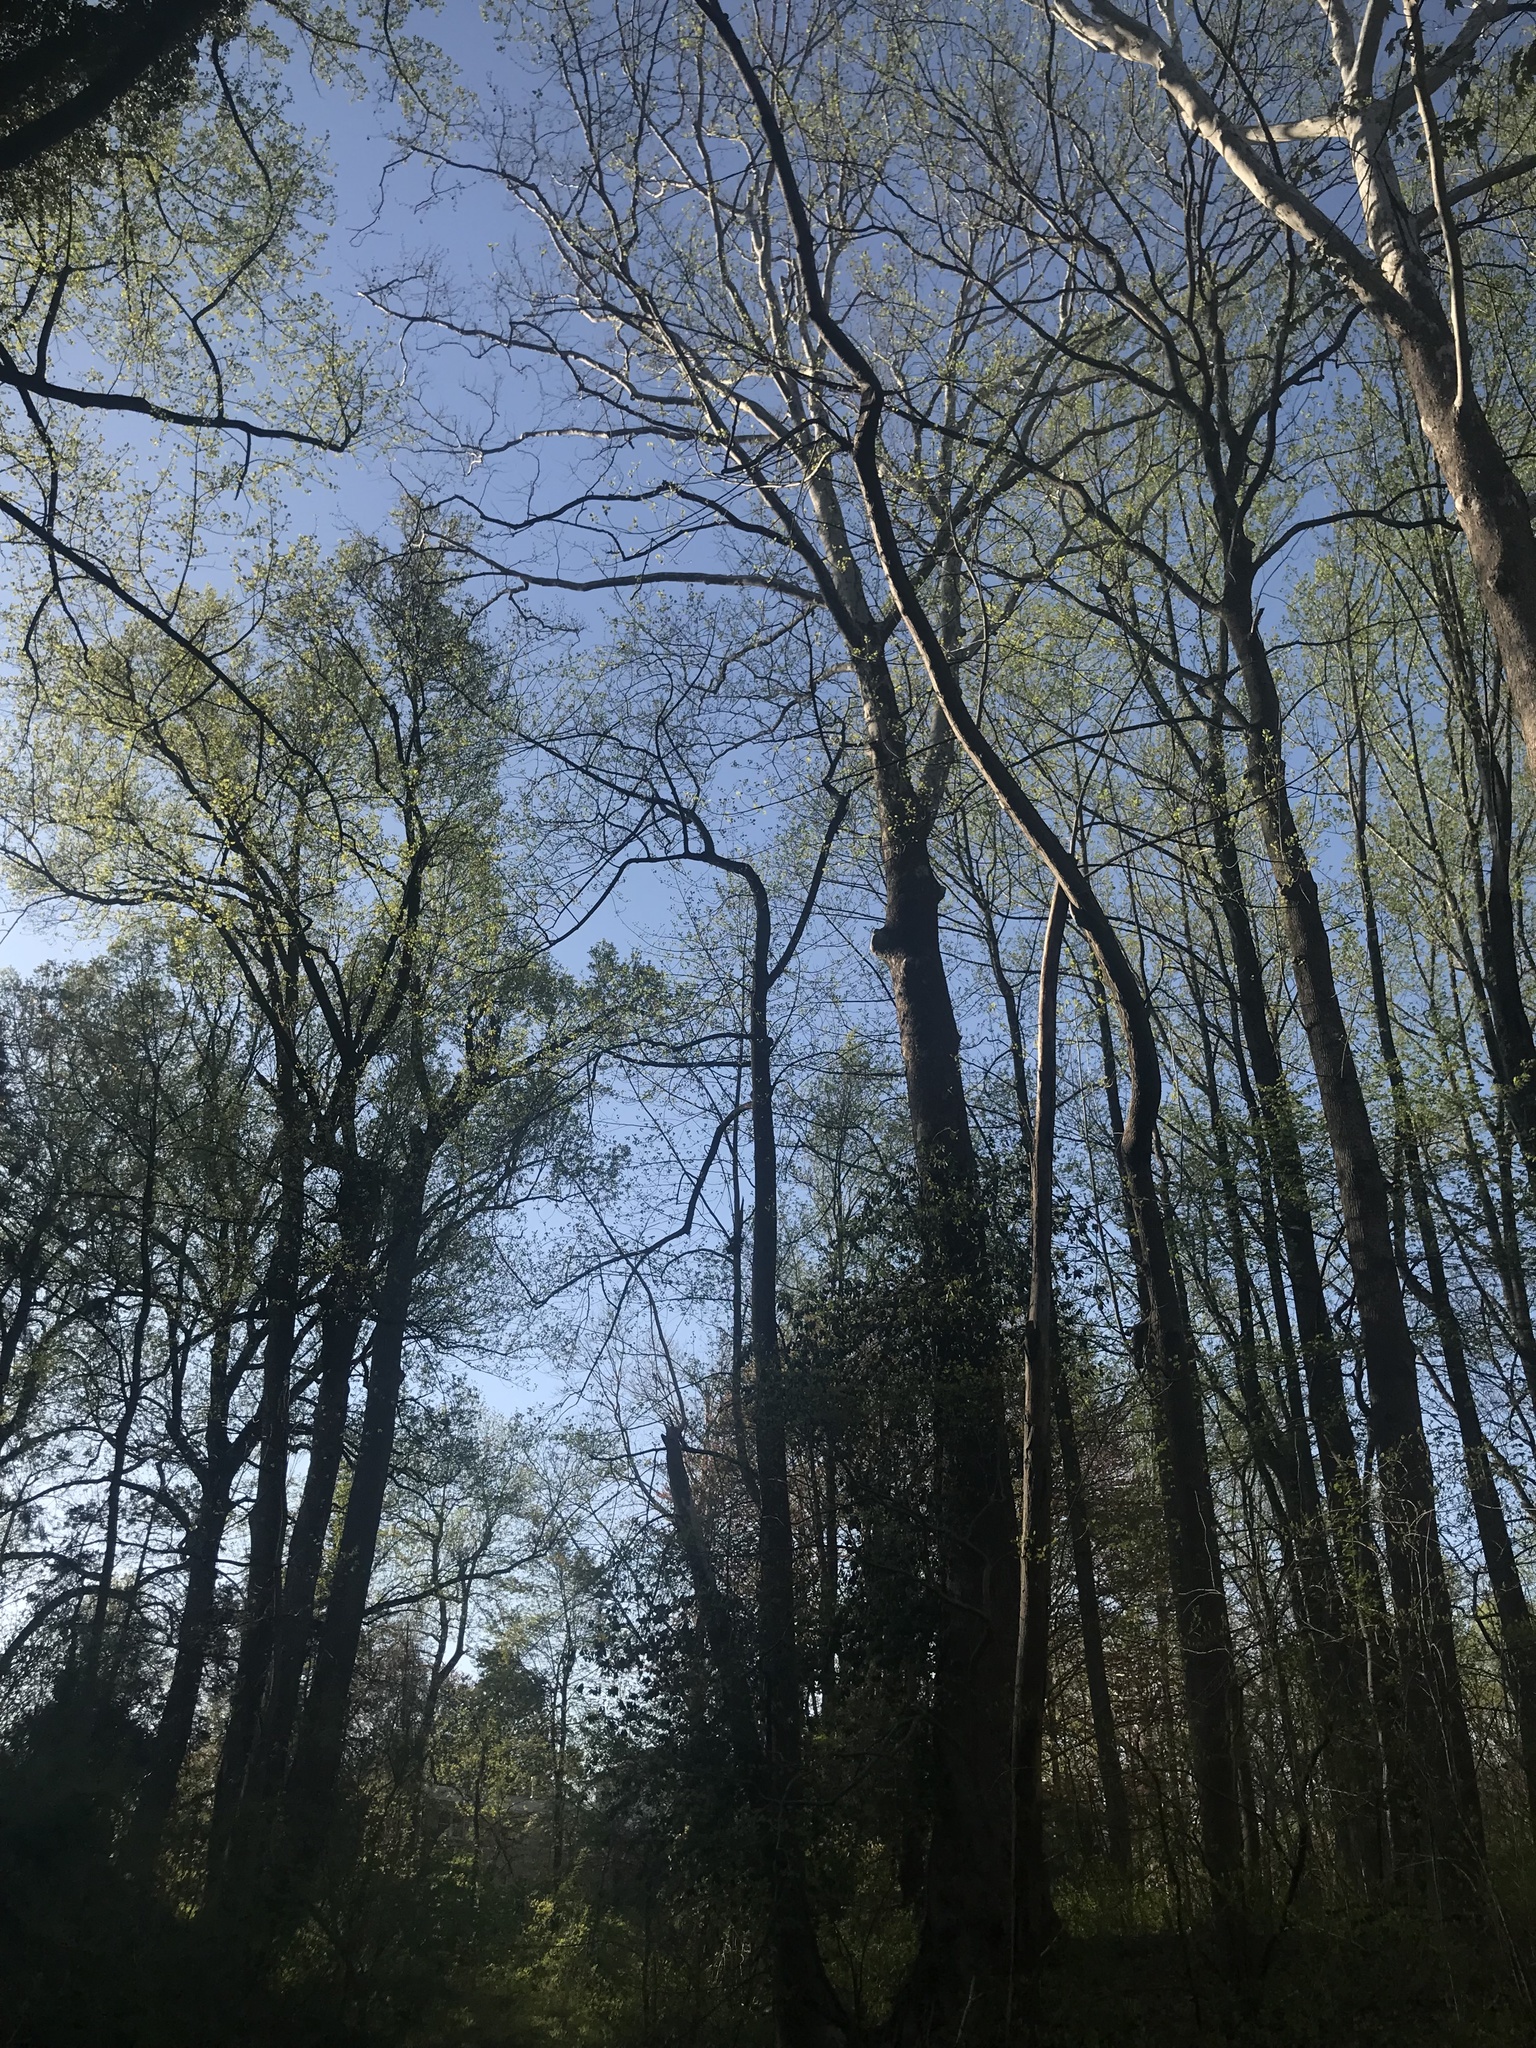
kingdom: Plantae
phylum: Tracheophyta
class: Magnoliopsida
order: Proteales
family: Platanaceae
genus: Platanus
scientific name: Platanus occidentalis
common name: American sycamore
